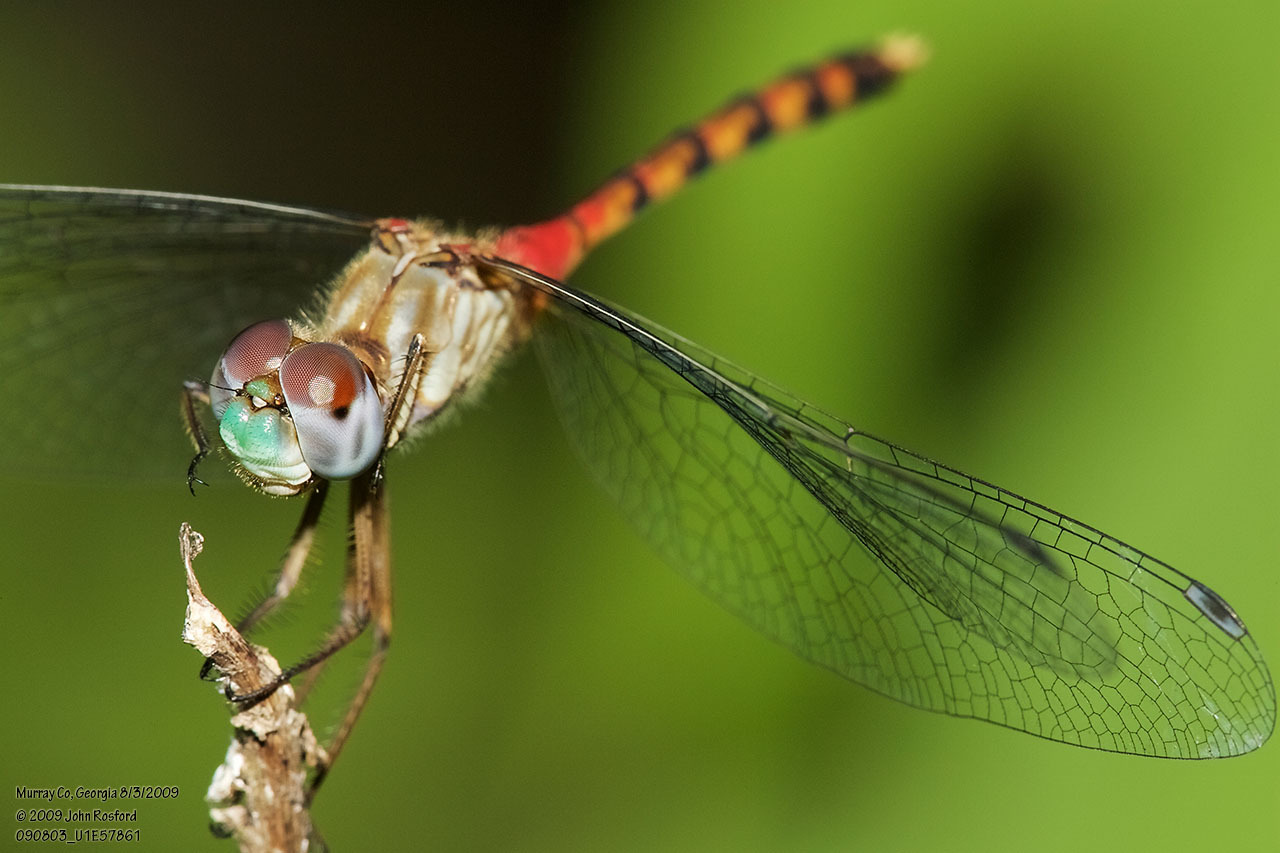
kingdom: Animalia
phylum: Arthropoda
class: Insecta
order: Odonata
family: Libellulidae
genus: Sympetrum
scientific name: Sympetrum ambiguum
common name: Blue-faced meadowhawk
